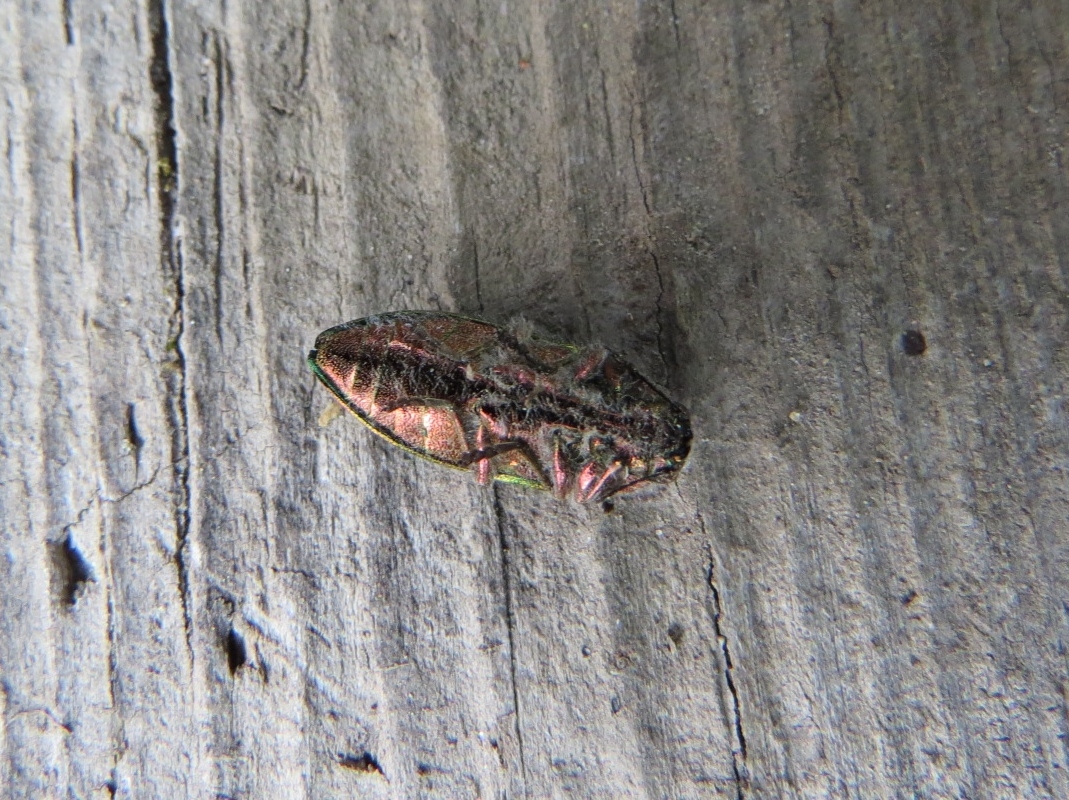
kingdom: Animalia
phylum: Arthropoda
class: Insecta
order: Coleoptera
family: Buprestidae
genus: Buprestis
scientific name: Buprestis aurulenta
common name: Golden buprestid
